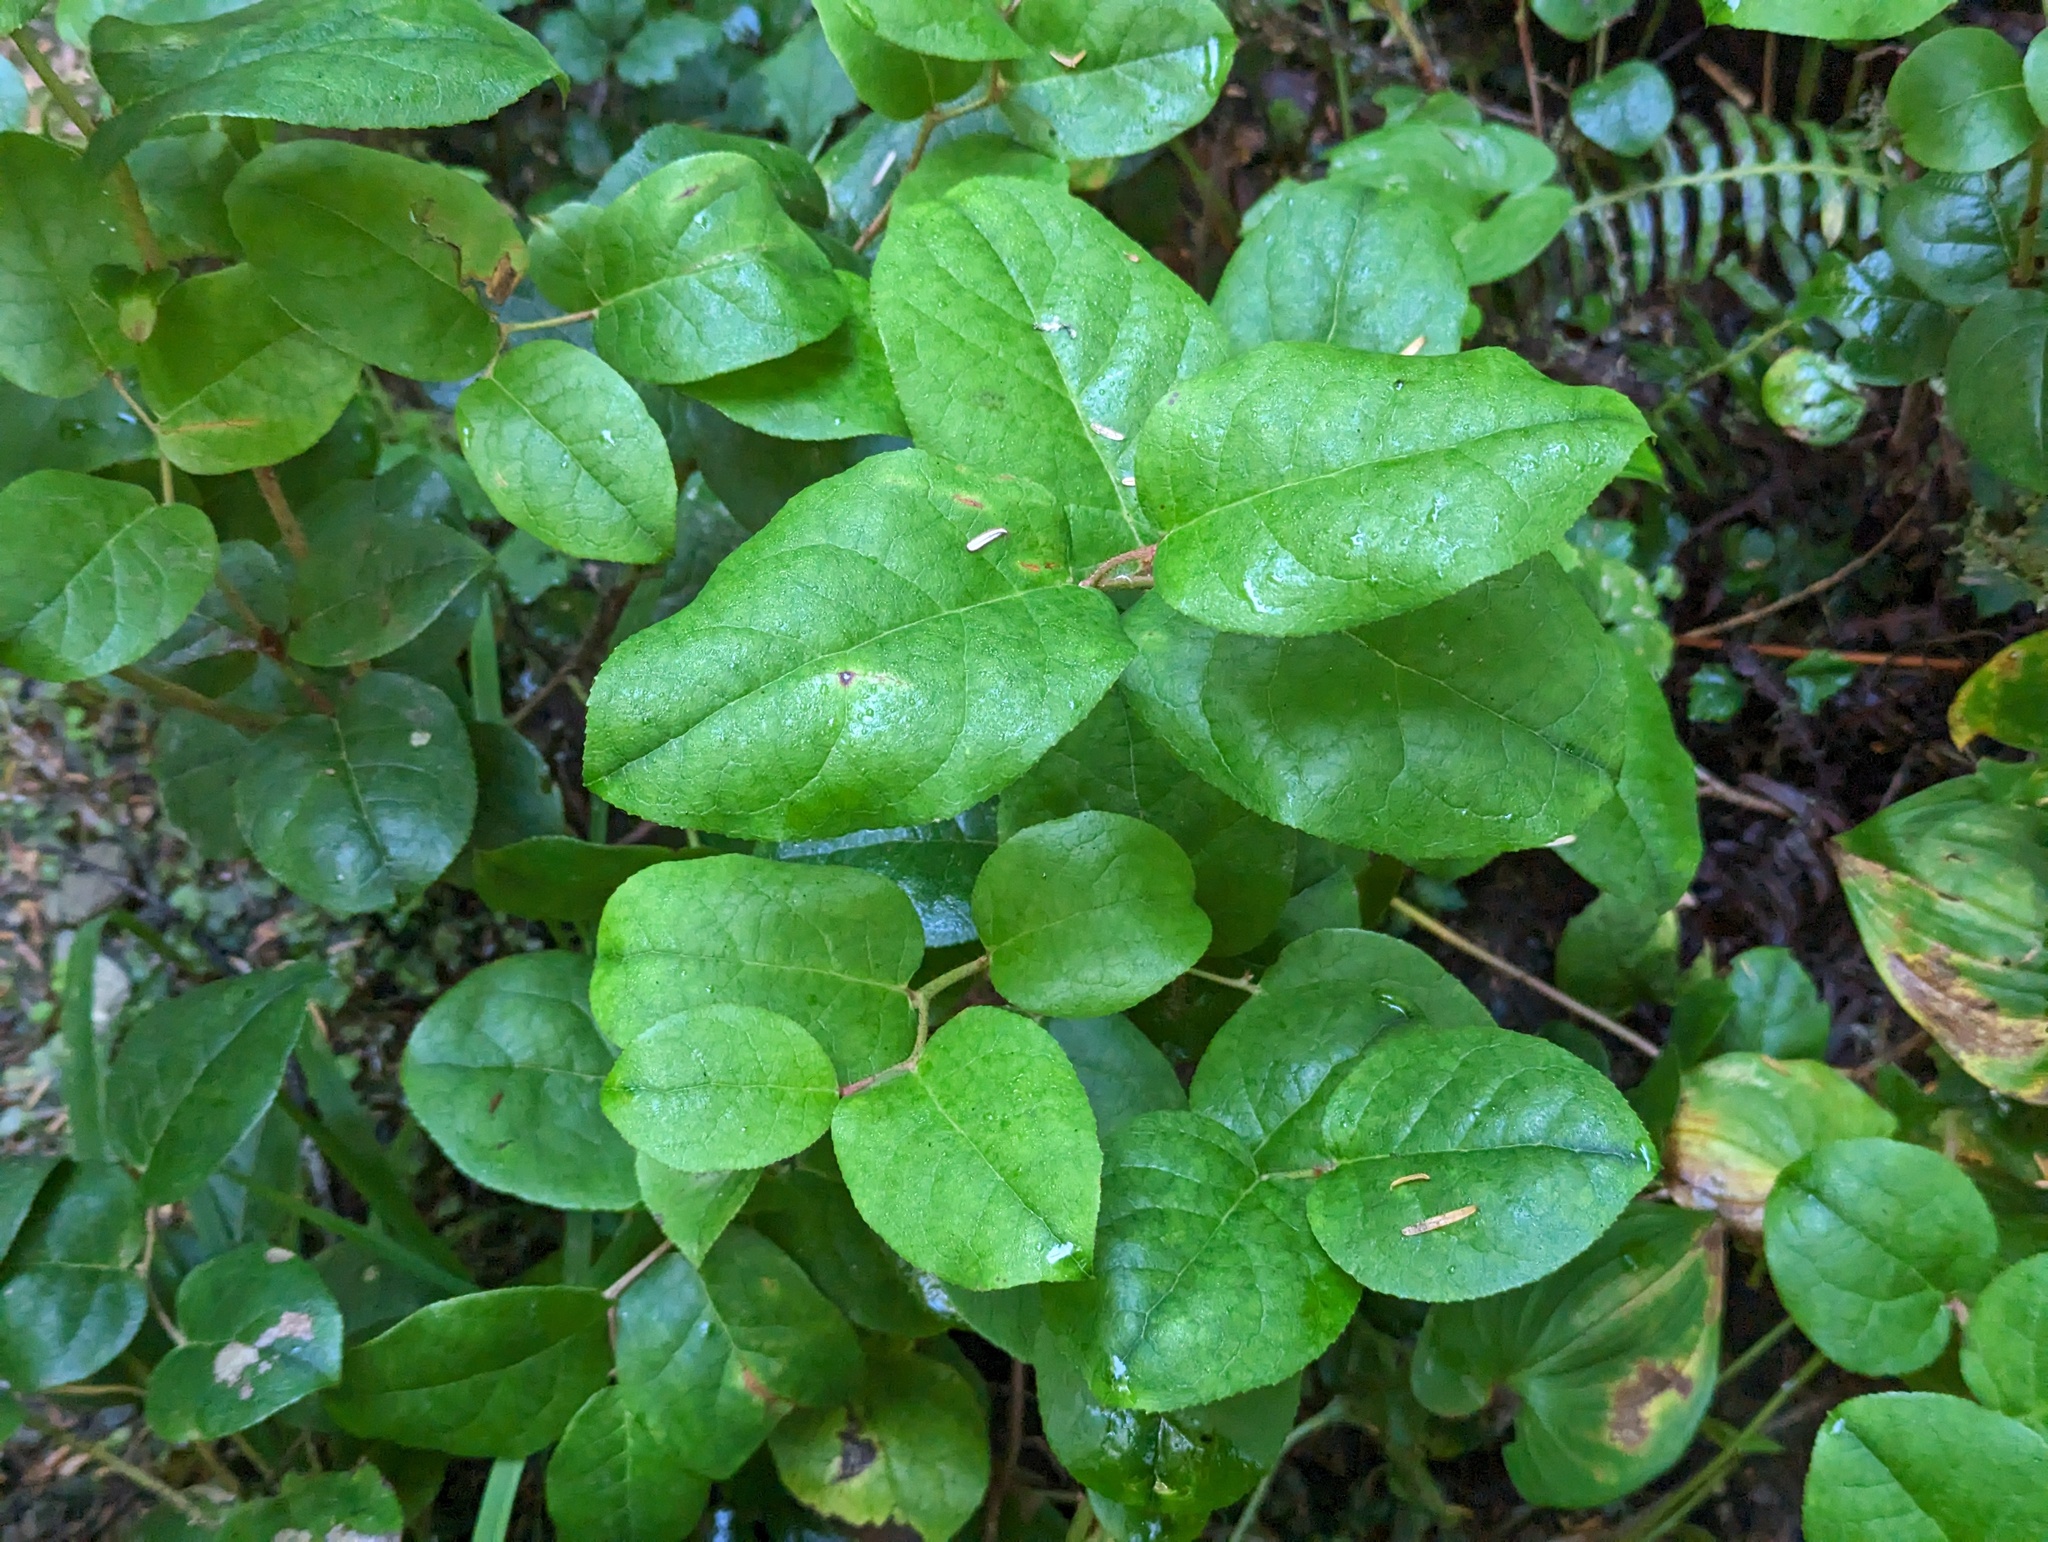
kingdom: Plantae
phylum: Tracheophyta
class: Magnoliopsida
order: Ericales
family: Ericaceae
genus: Gaultheria
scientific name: Gaultheria shallon
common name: Shallon
